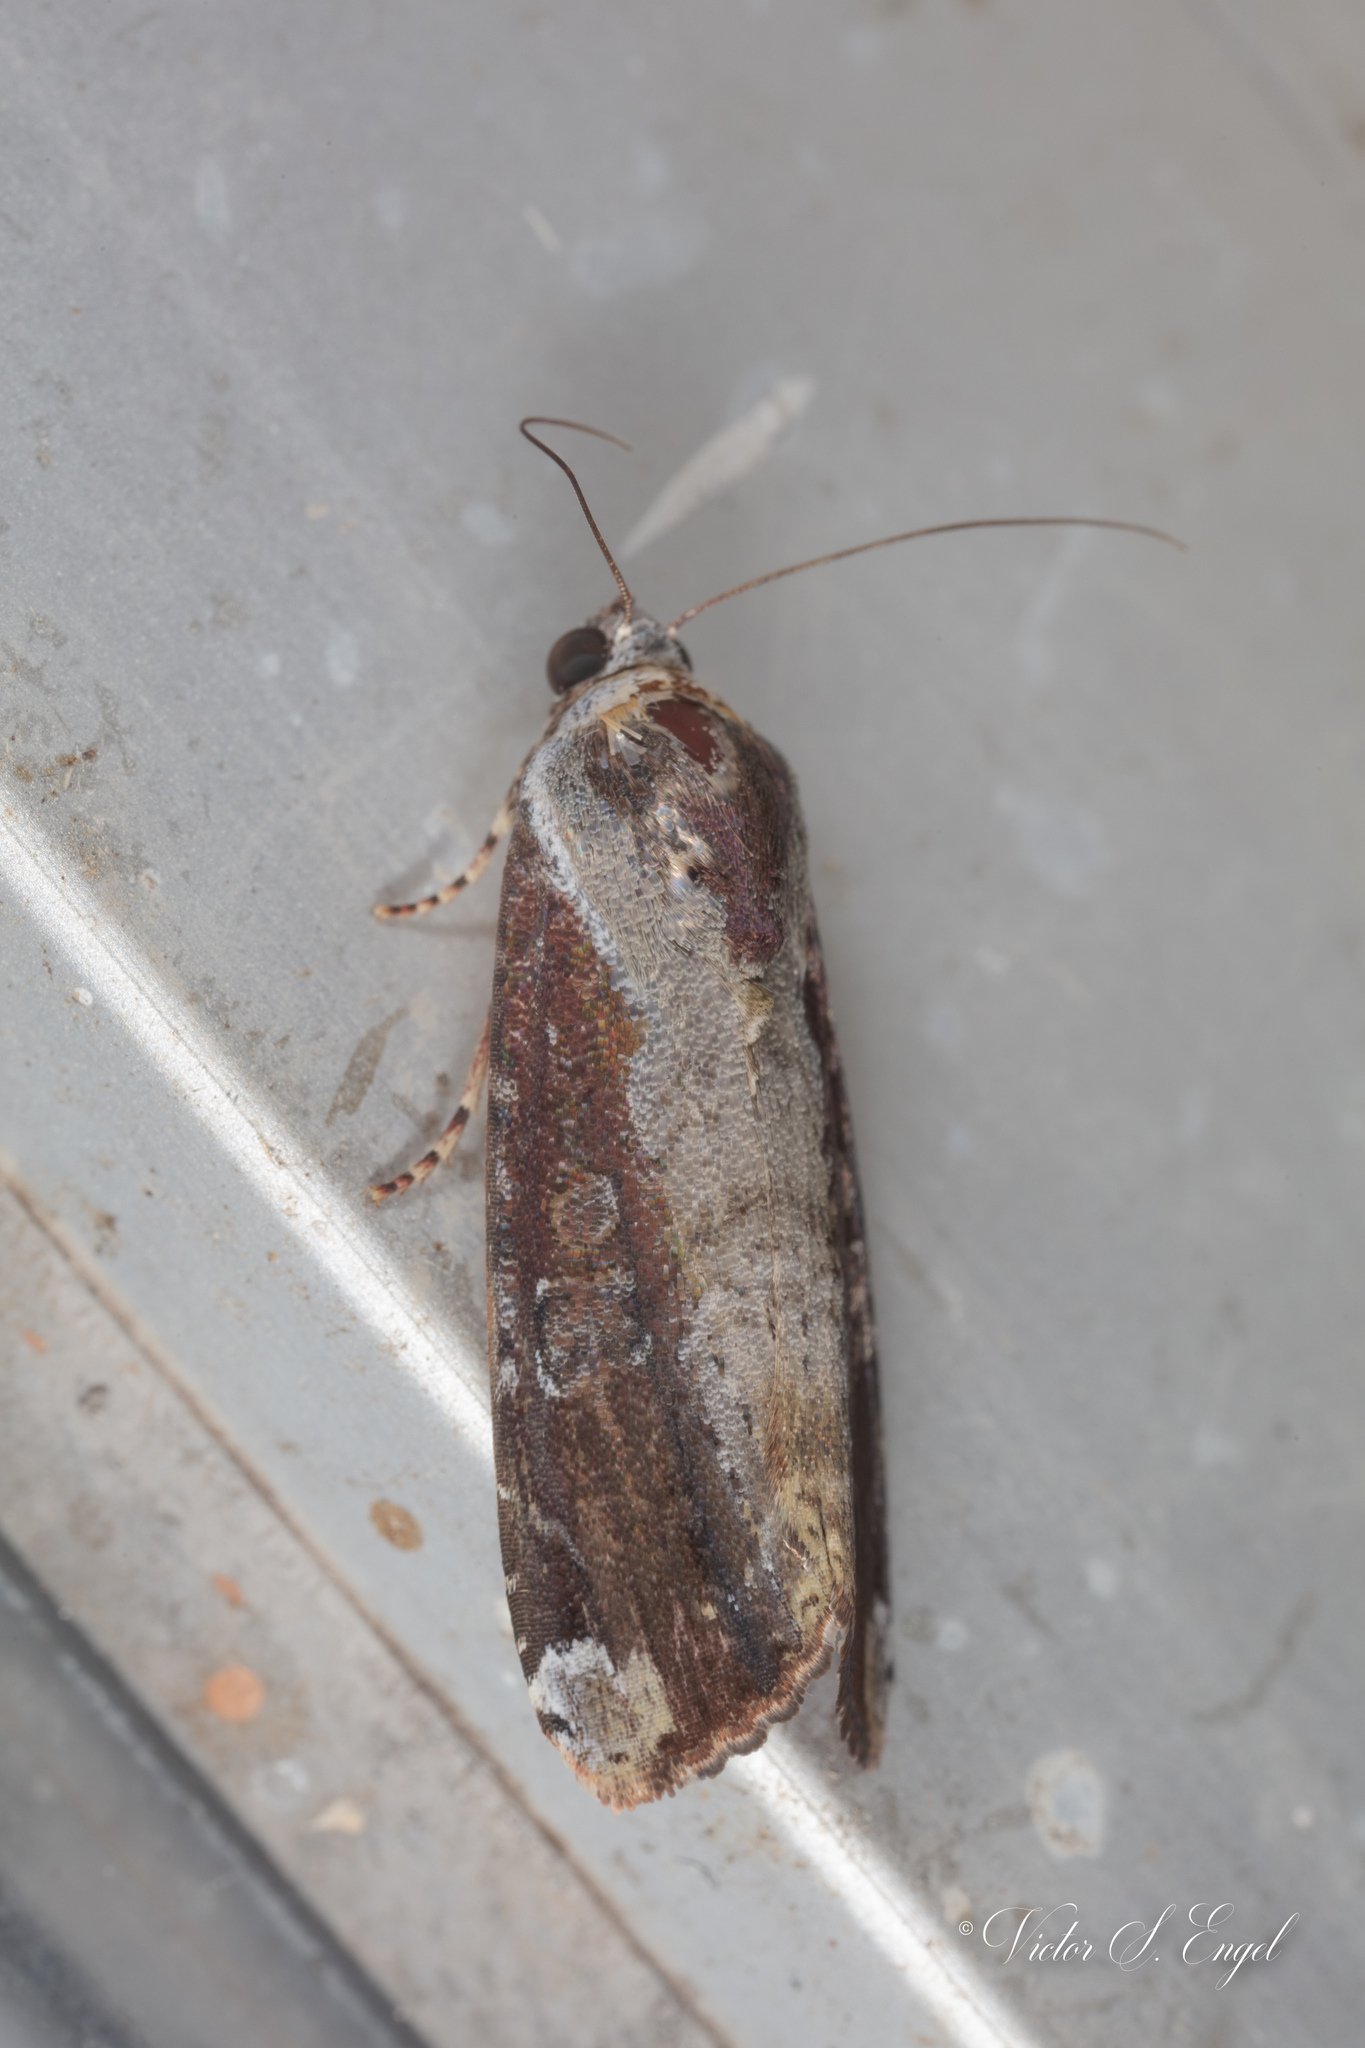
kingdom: Animalia
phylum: Arthropoda
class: Insecta
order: Lepidoptera
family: Noctuidae
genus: Magusa
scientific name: Magusa divaricata
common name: Orb narrow-winged moth
